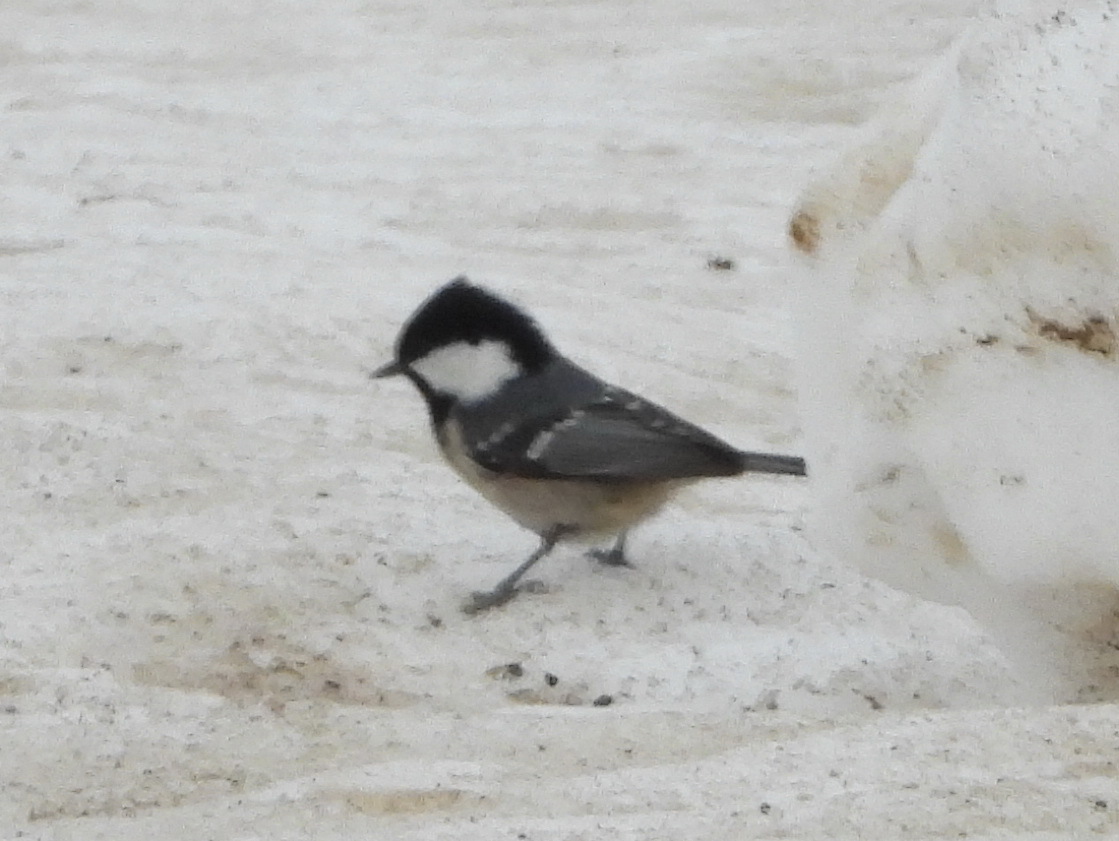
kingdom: Animalia
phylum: Chordata
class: Aves
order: Passeriformes
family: Paridae
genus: Periparus
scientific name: Periparus ater
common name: Coal tit
